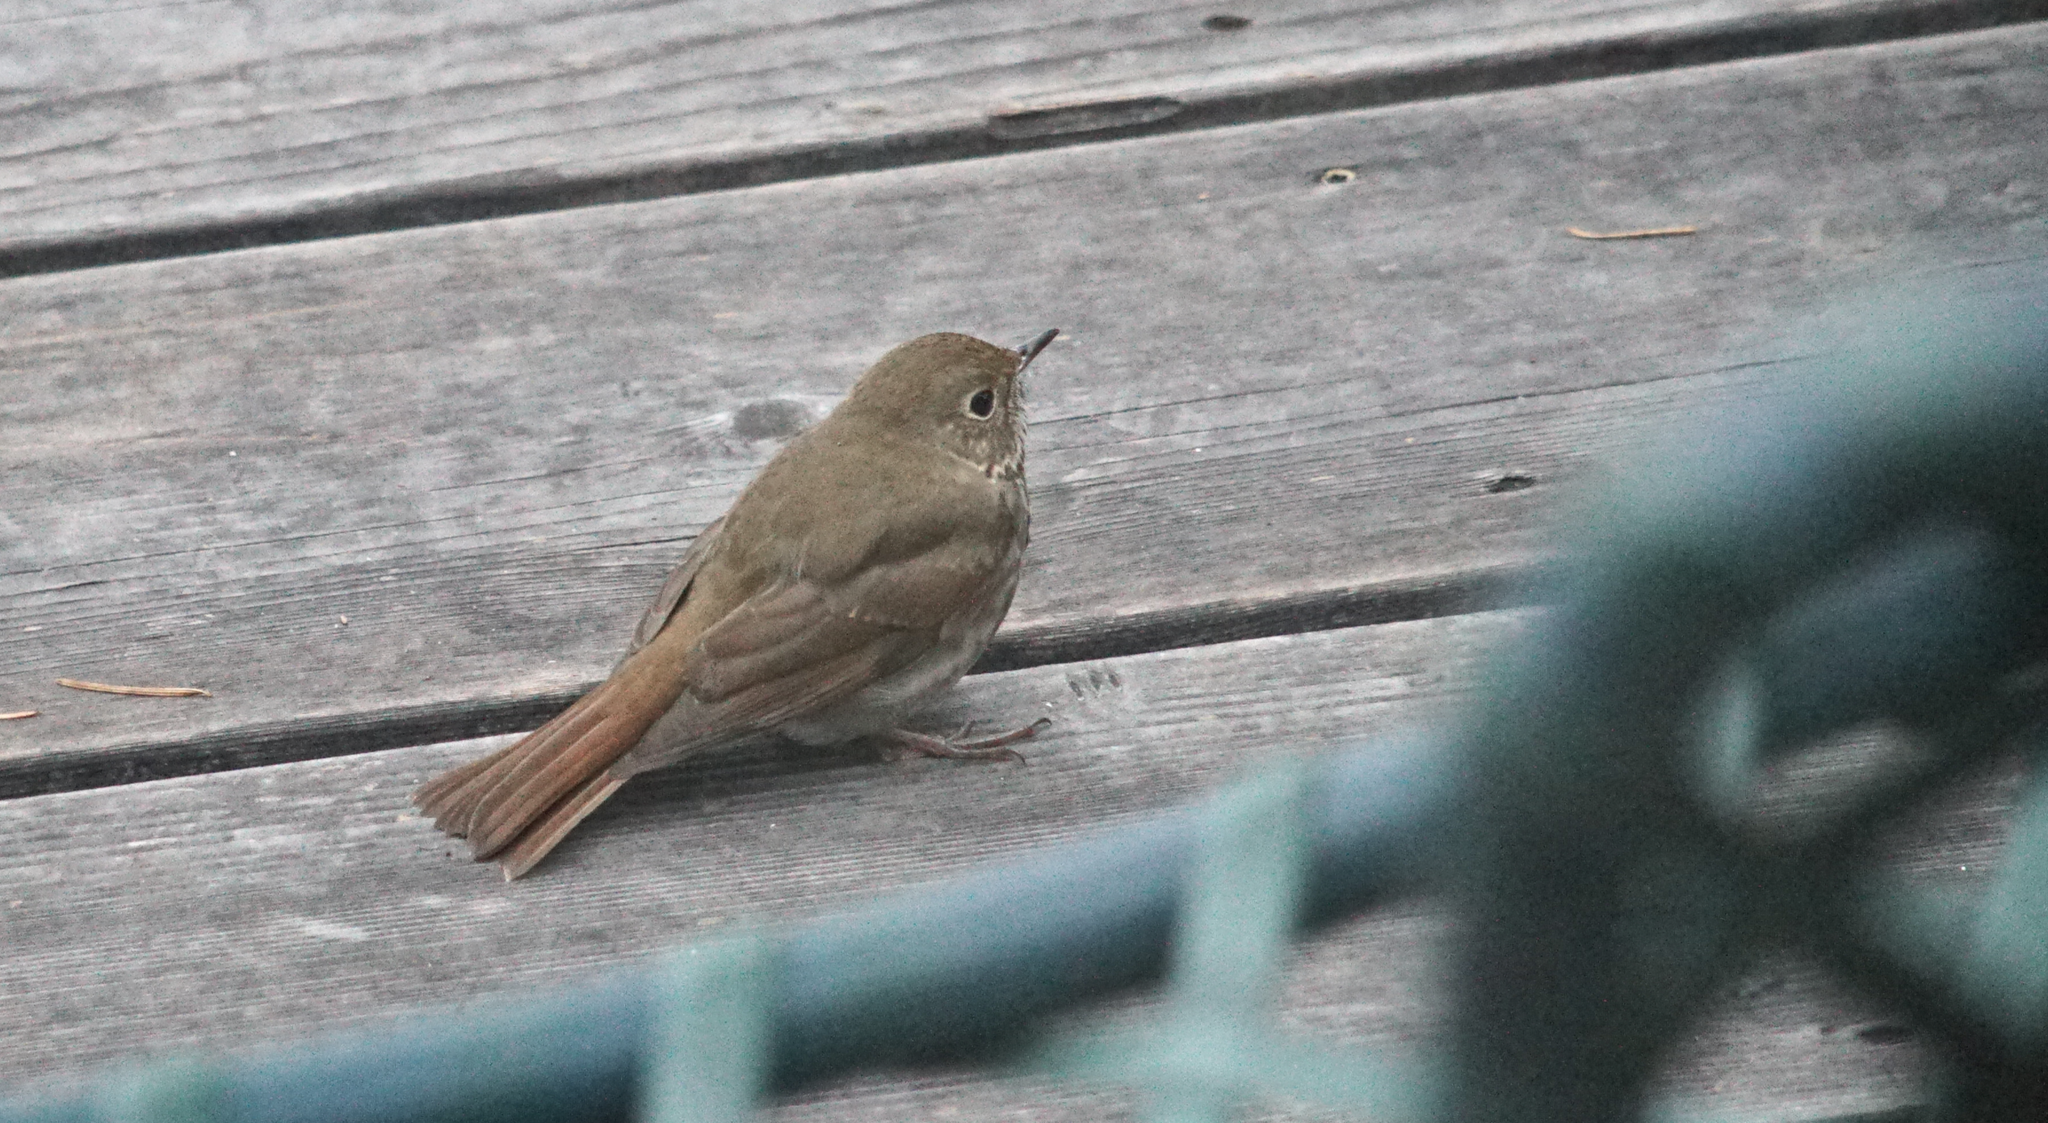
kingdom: Animalia
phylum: Chordata
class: Aves
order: Passeriformes
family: Turdidae
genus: Catharus
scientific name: Catharus guttatus
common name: Hermit thrush
